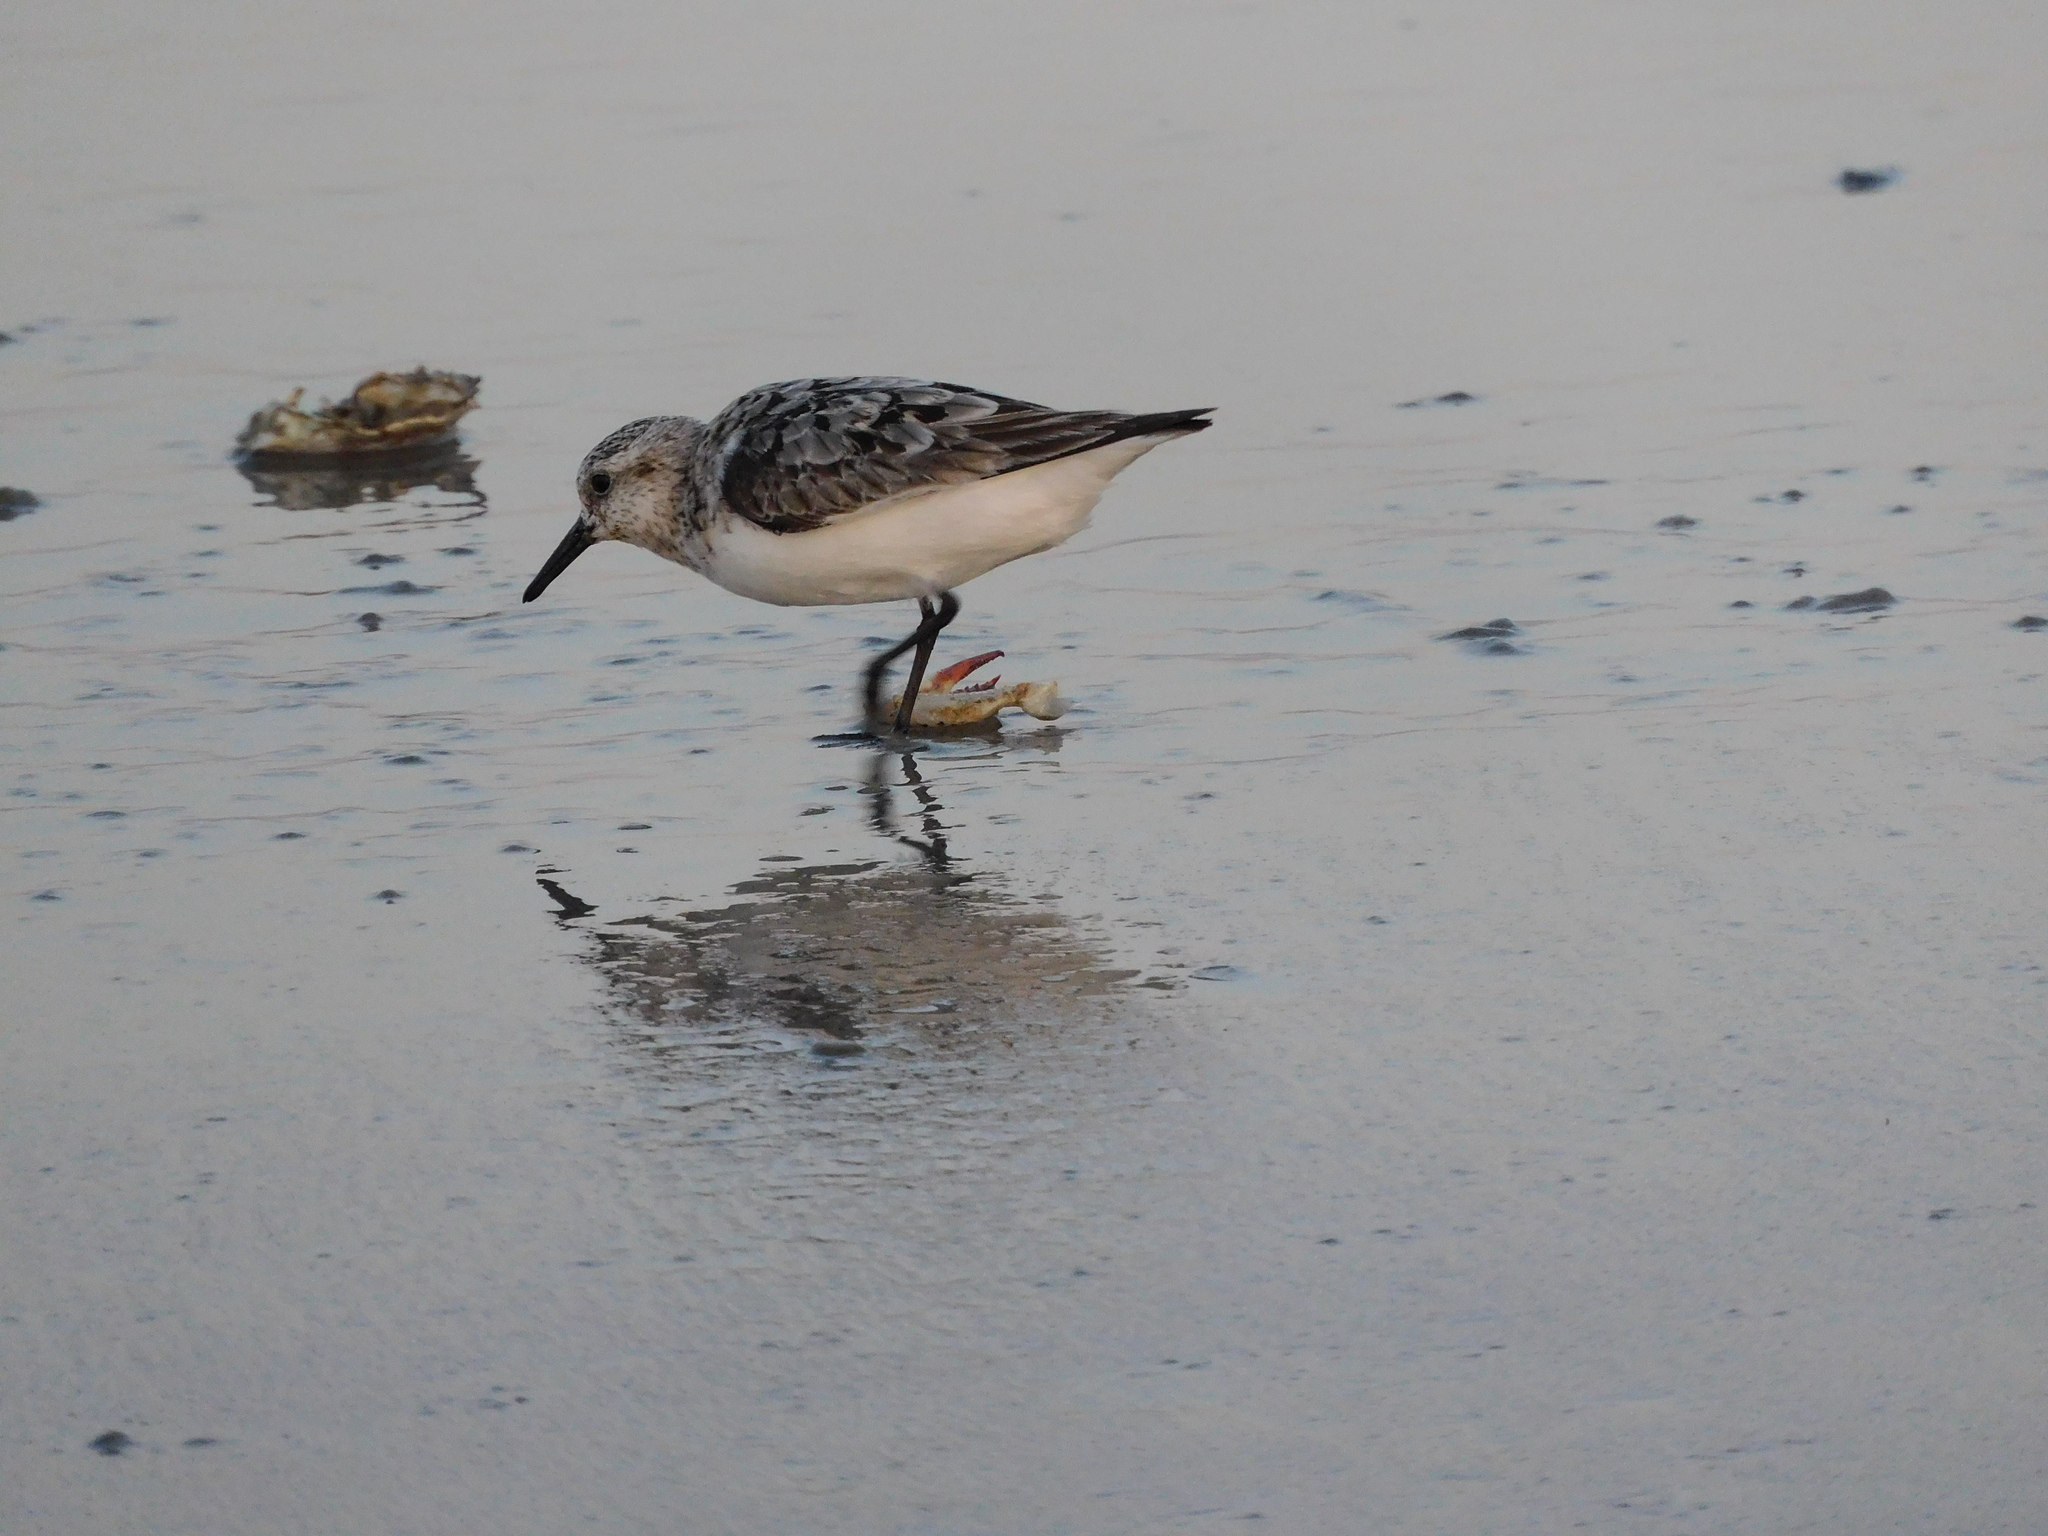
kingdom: Animalia
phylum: Chordata
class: Aves
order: Charadriiformes
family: Scolopacidae
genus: Calidris
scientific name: Calidris alba
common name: Sanderling
